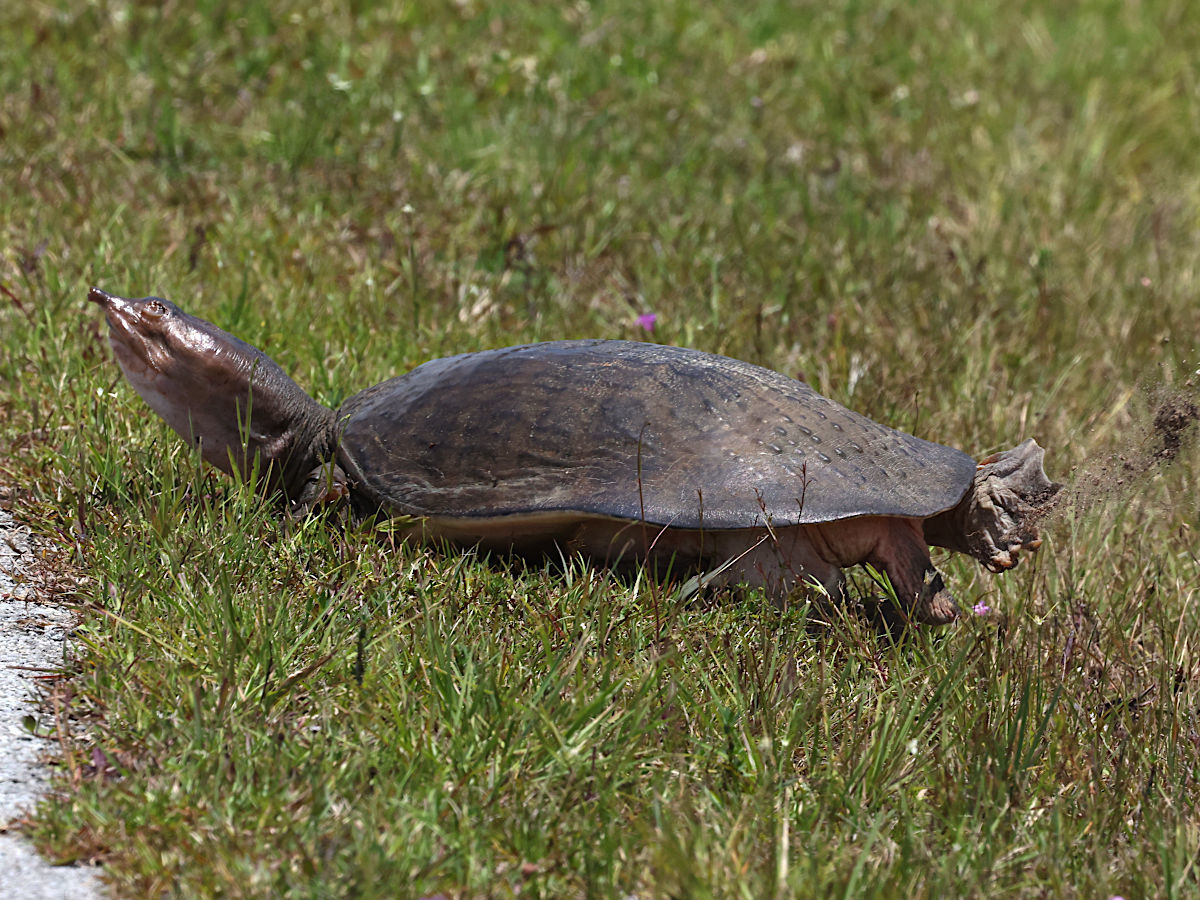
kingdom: Animalia
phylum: Chordata
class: Testudines
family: Trionychidae
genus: Apalone
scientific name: Apalone ferox
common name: Florida softshell turtle
